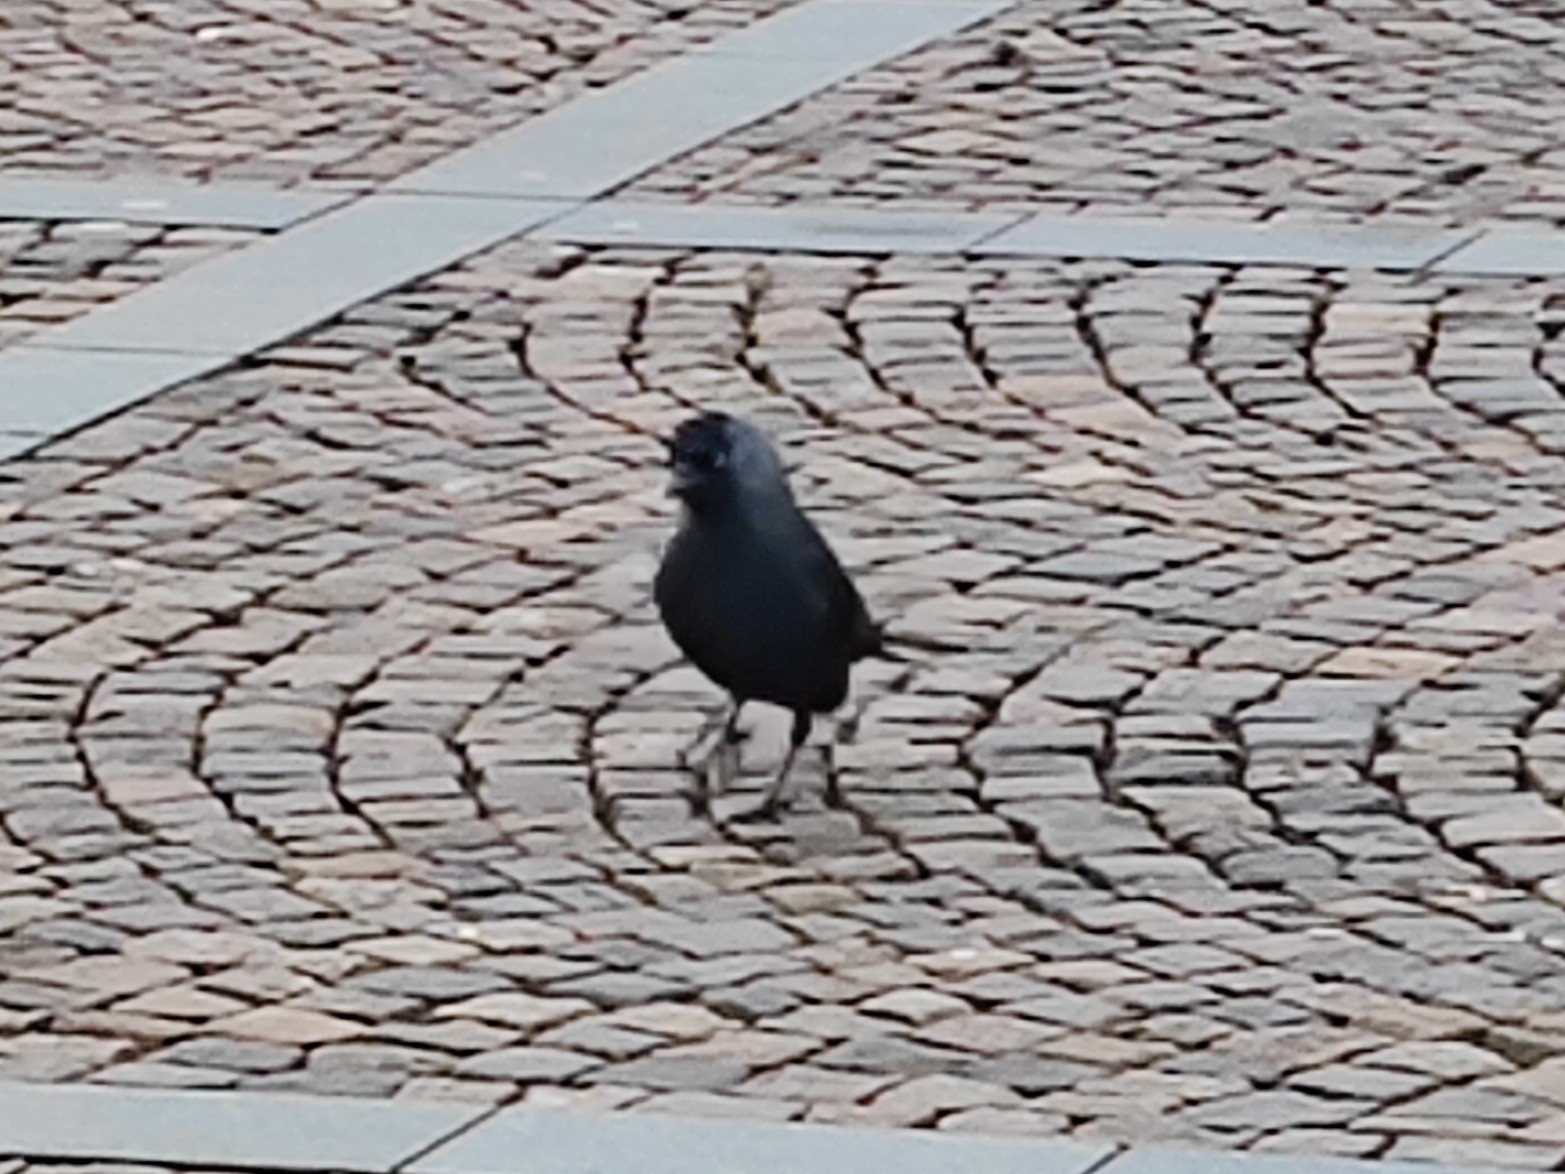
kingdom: Animalia
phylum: Chordata
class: Aves
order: Passeriformes
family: Corvidae
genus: Coloeus
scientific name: Coloeus monedula
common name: Western jackdaw
